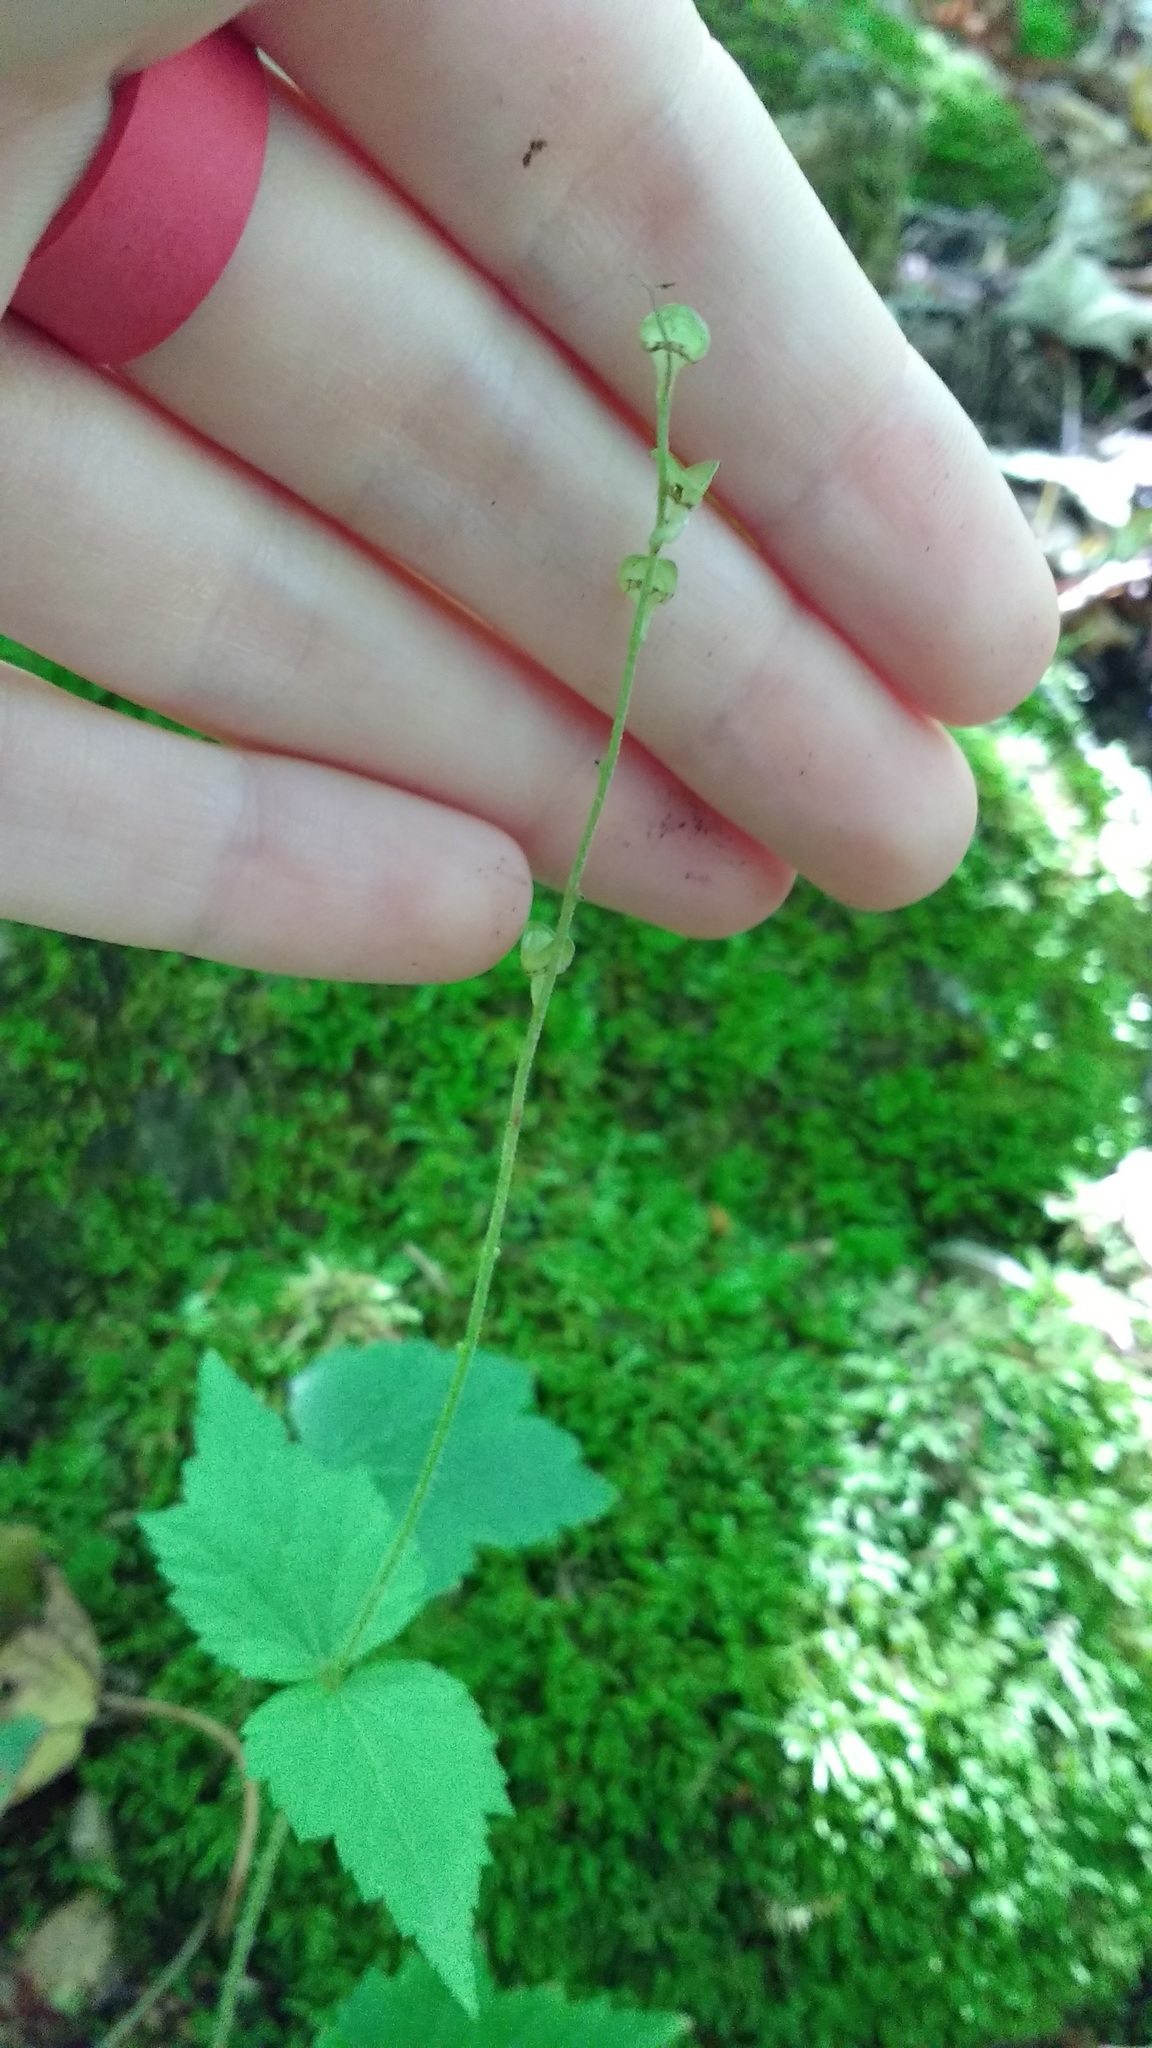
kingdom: Plantae
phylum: Tracheophyta
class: Magnoliopsida
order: Saxifragales
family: Saxifragaceae
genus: Mitella
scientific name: Mitella diphylla
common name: Coolwort
